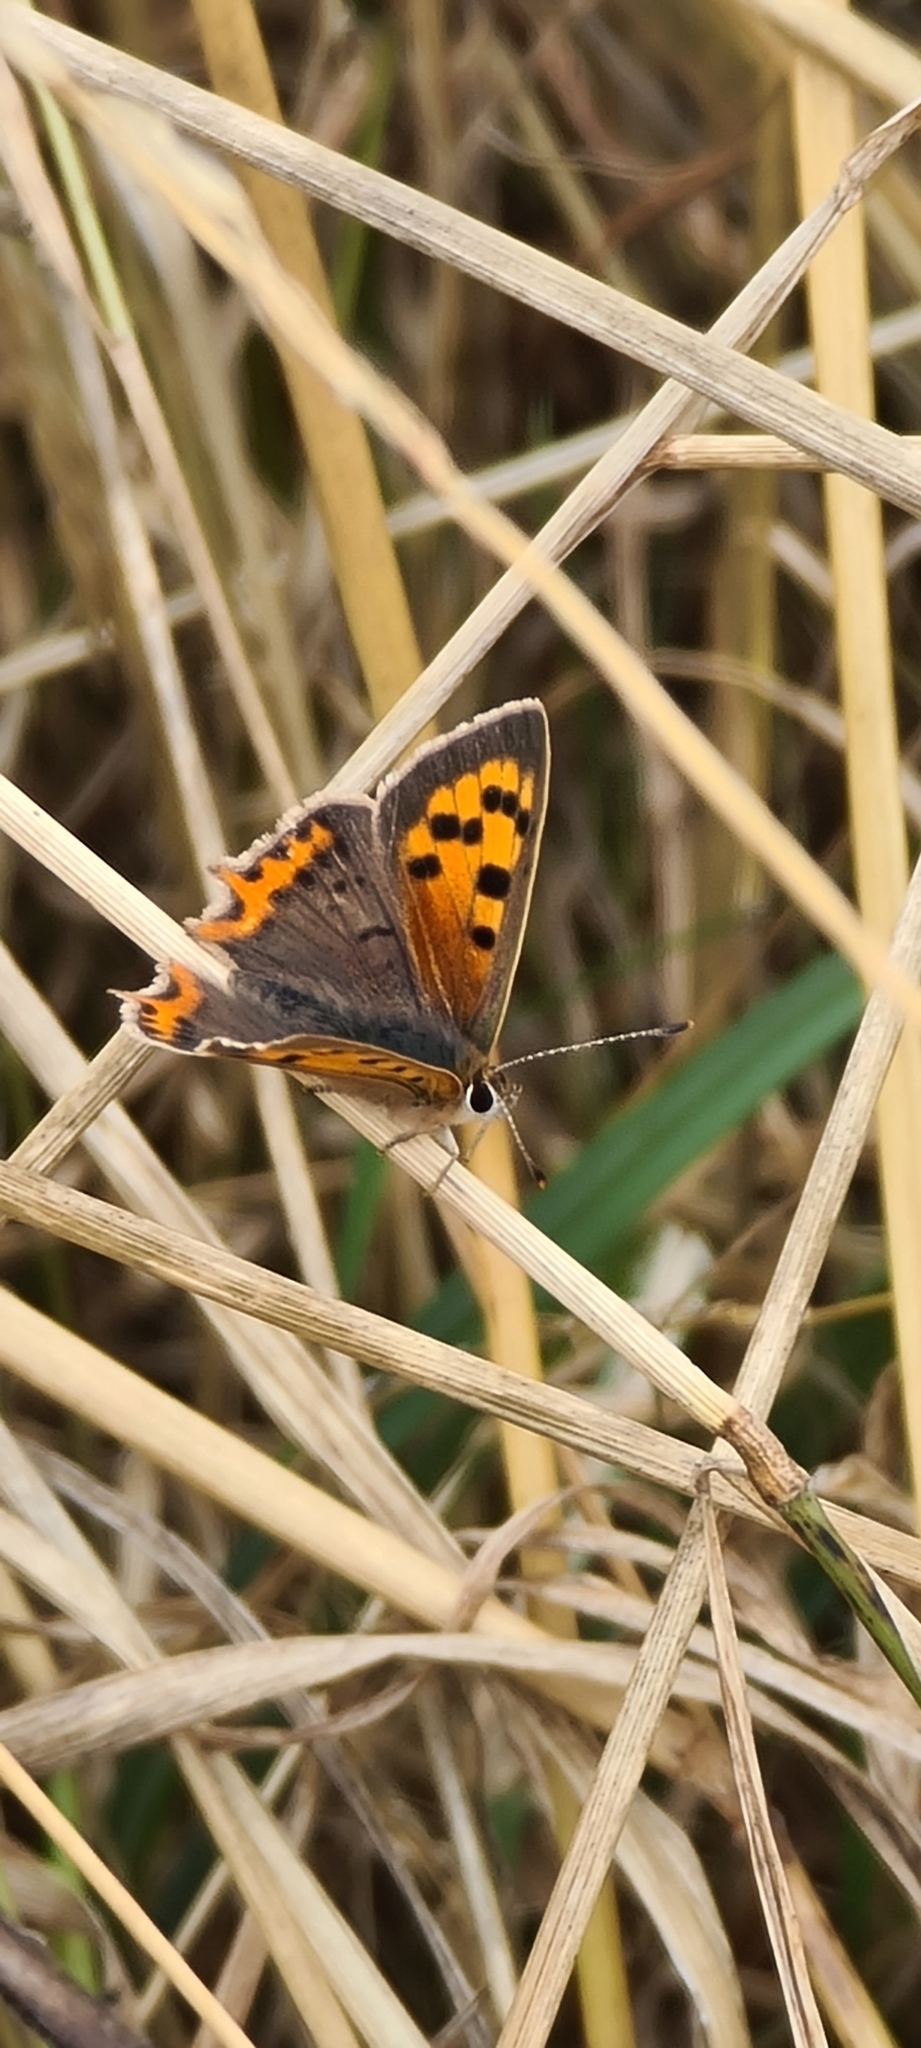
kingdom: Animalia
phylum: Arthropoda
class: Insecta
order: Lepidoptera
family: Lycaenidae
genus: Lycaena
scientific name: Lycaena phlaeas
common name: Small copper
